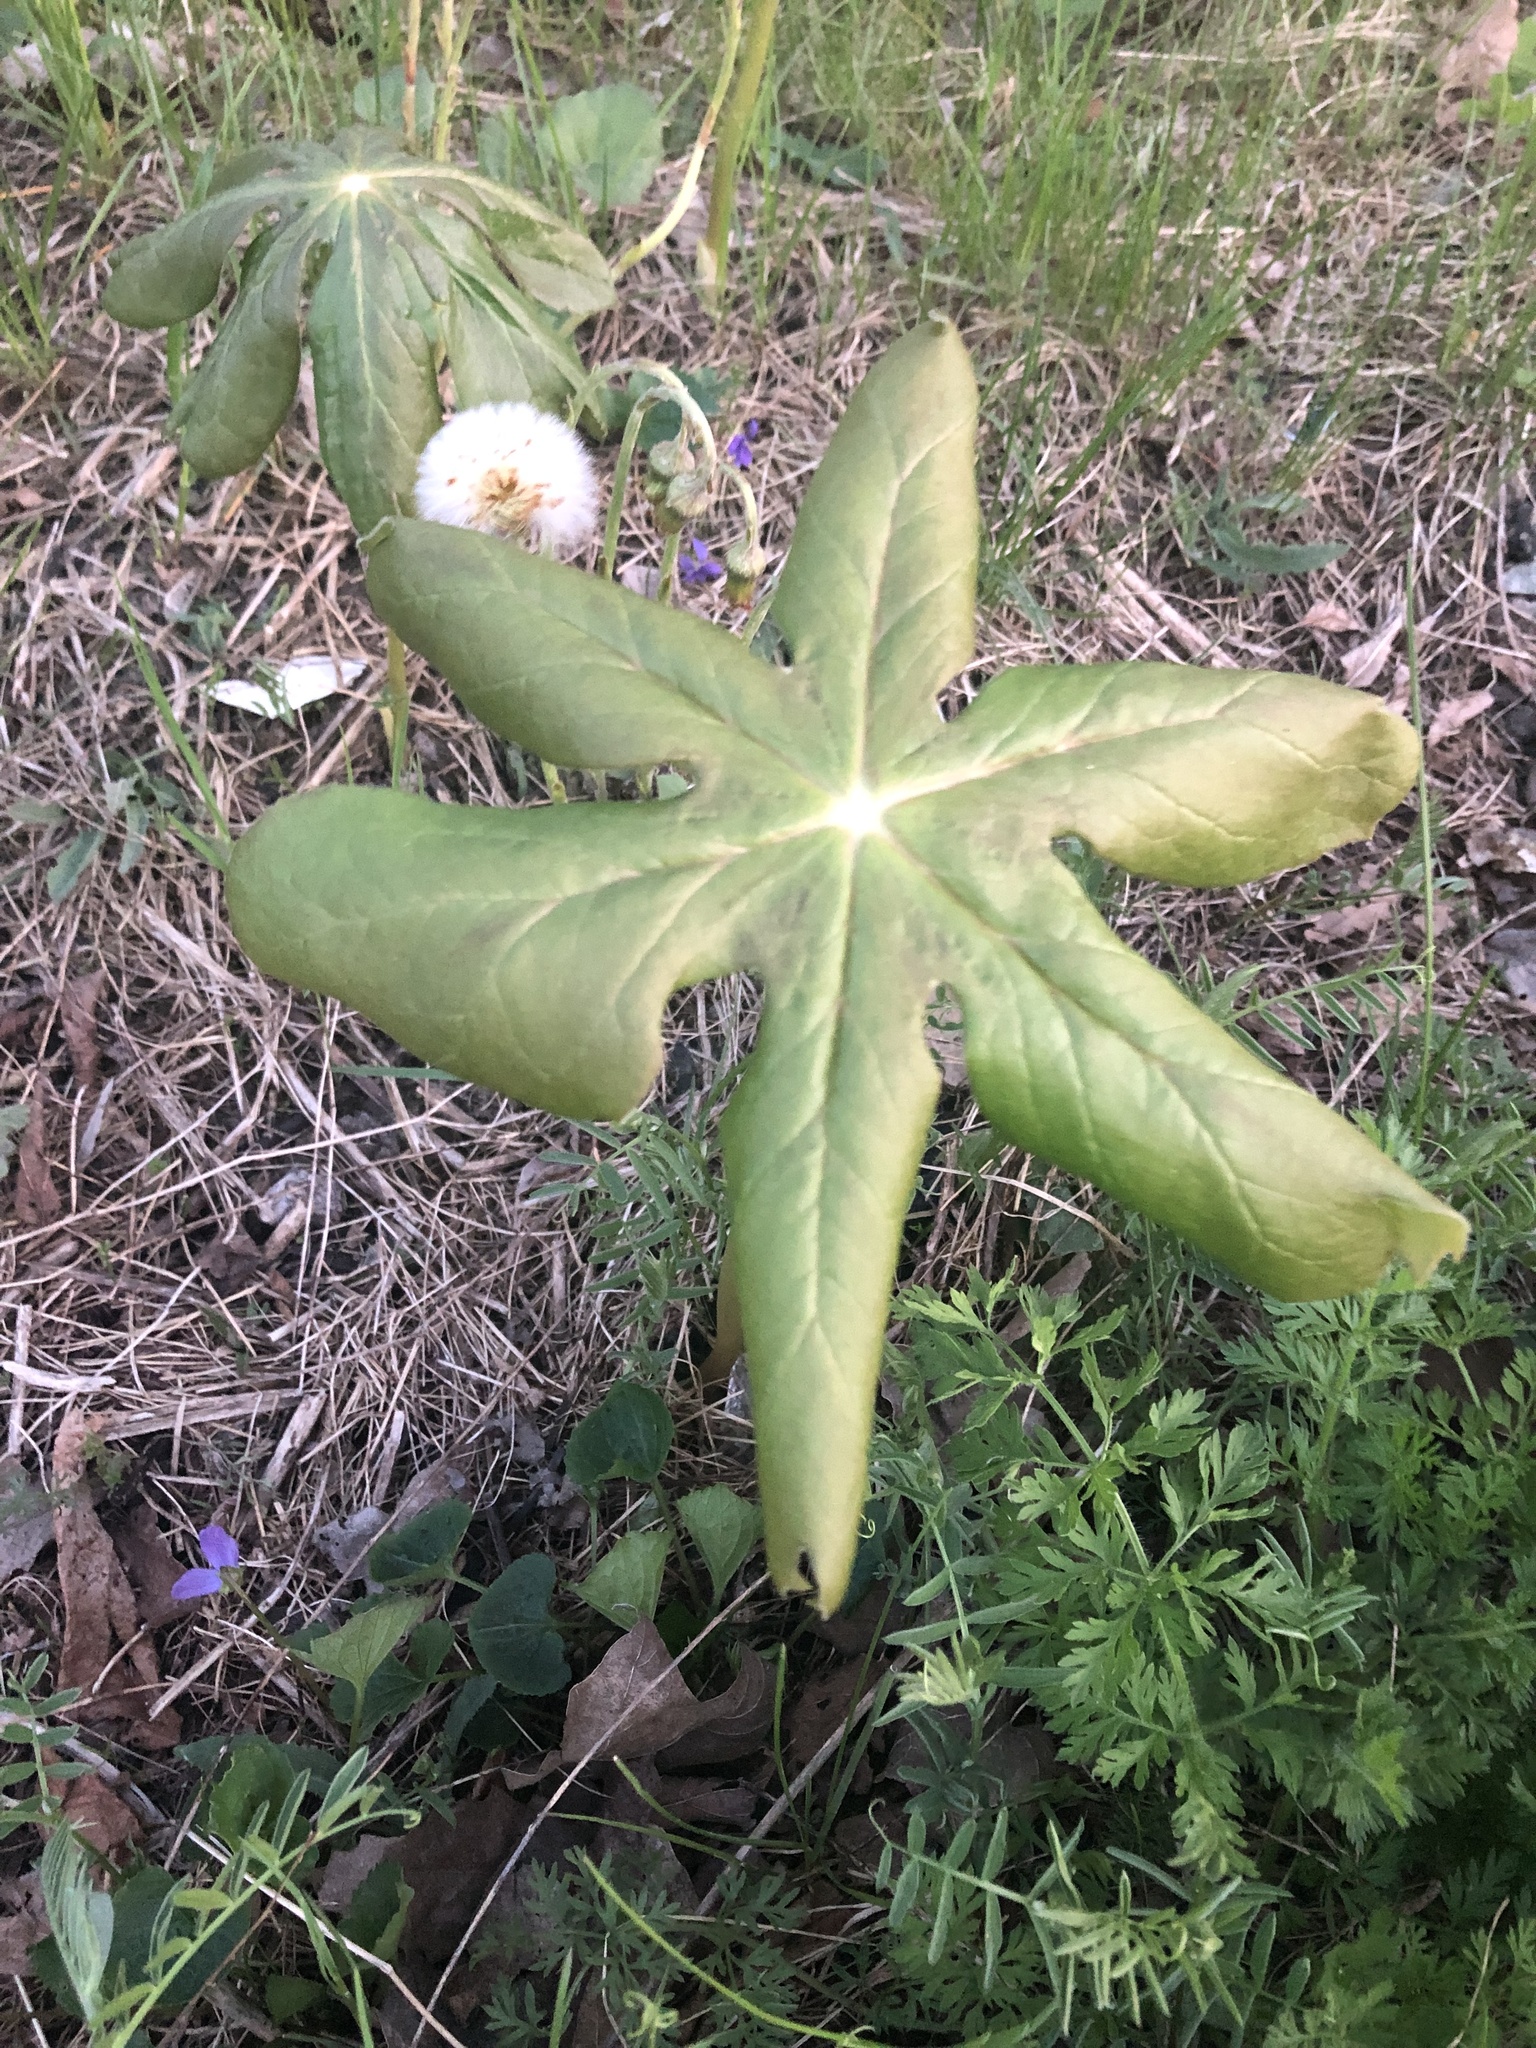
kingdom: Plantae
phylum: Tracheophyta
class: Magnoliopsida
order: Ranunculales
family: Berberidaceae
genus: Podophyllum
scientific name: Podophyllum peltatum
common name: Wild mandrake
